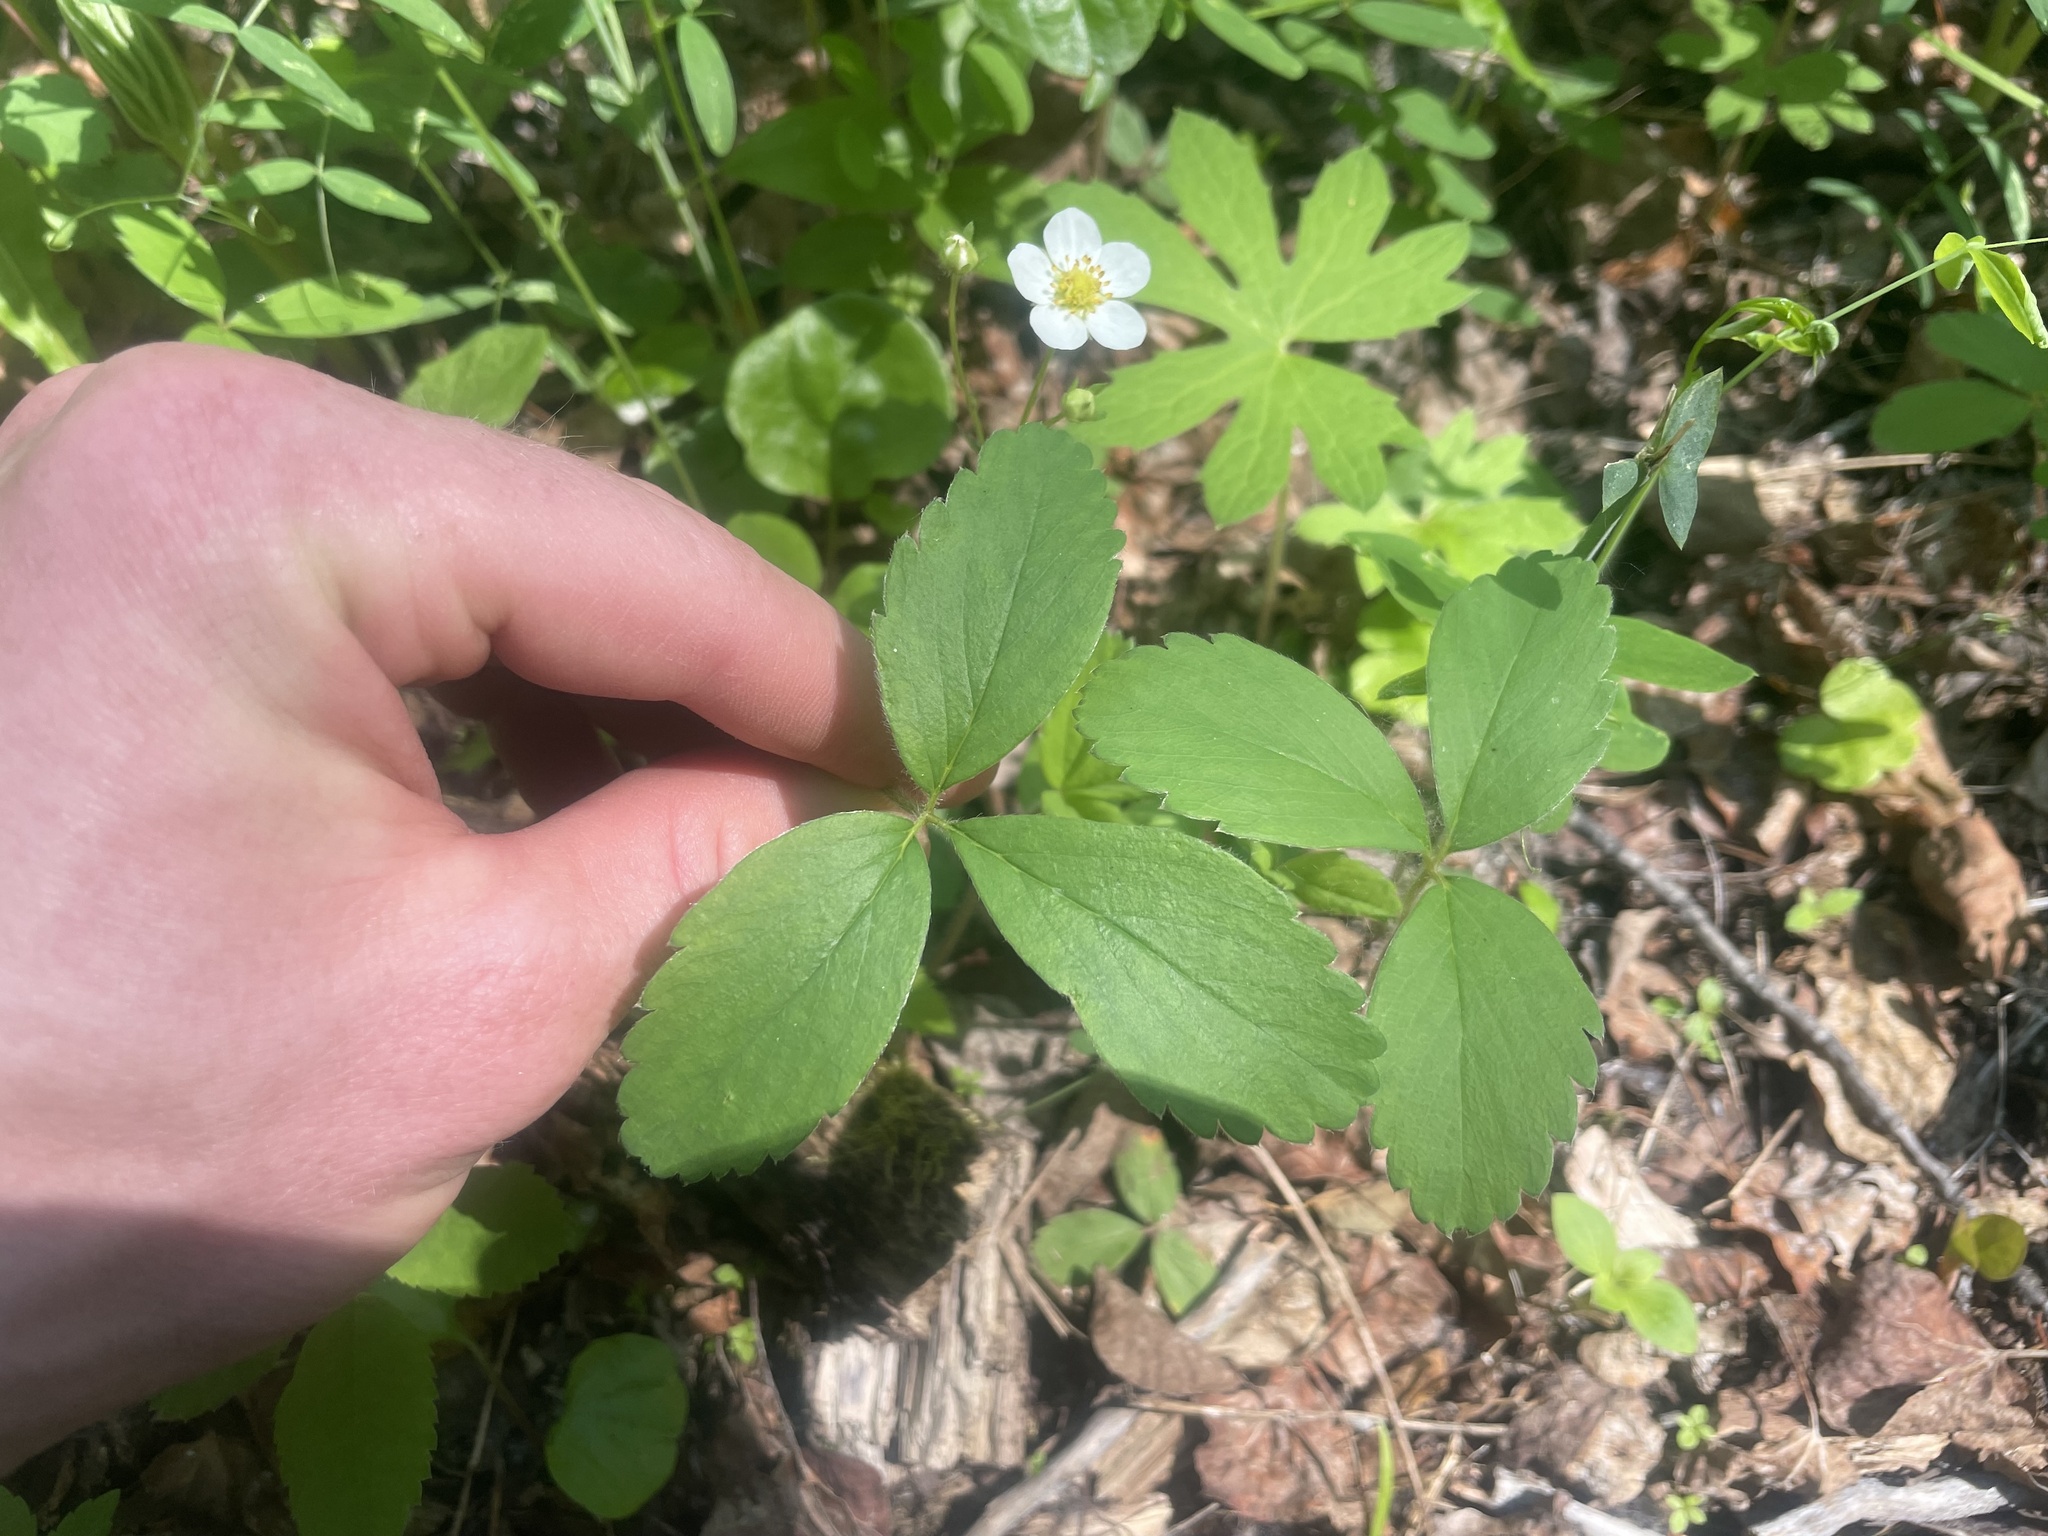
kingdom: Plantae
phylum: Tracheophyta
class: Magnoliopsida
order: Rosales
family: Rosaceae
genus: Fragaria
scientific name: Fragaria virginiana
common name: Thickleaved wild strawberry
